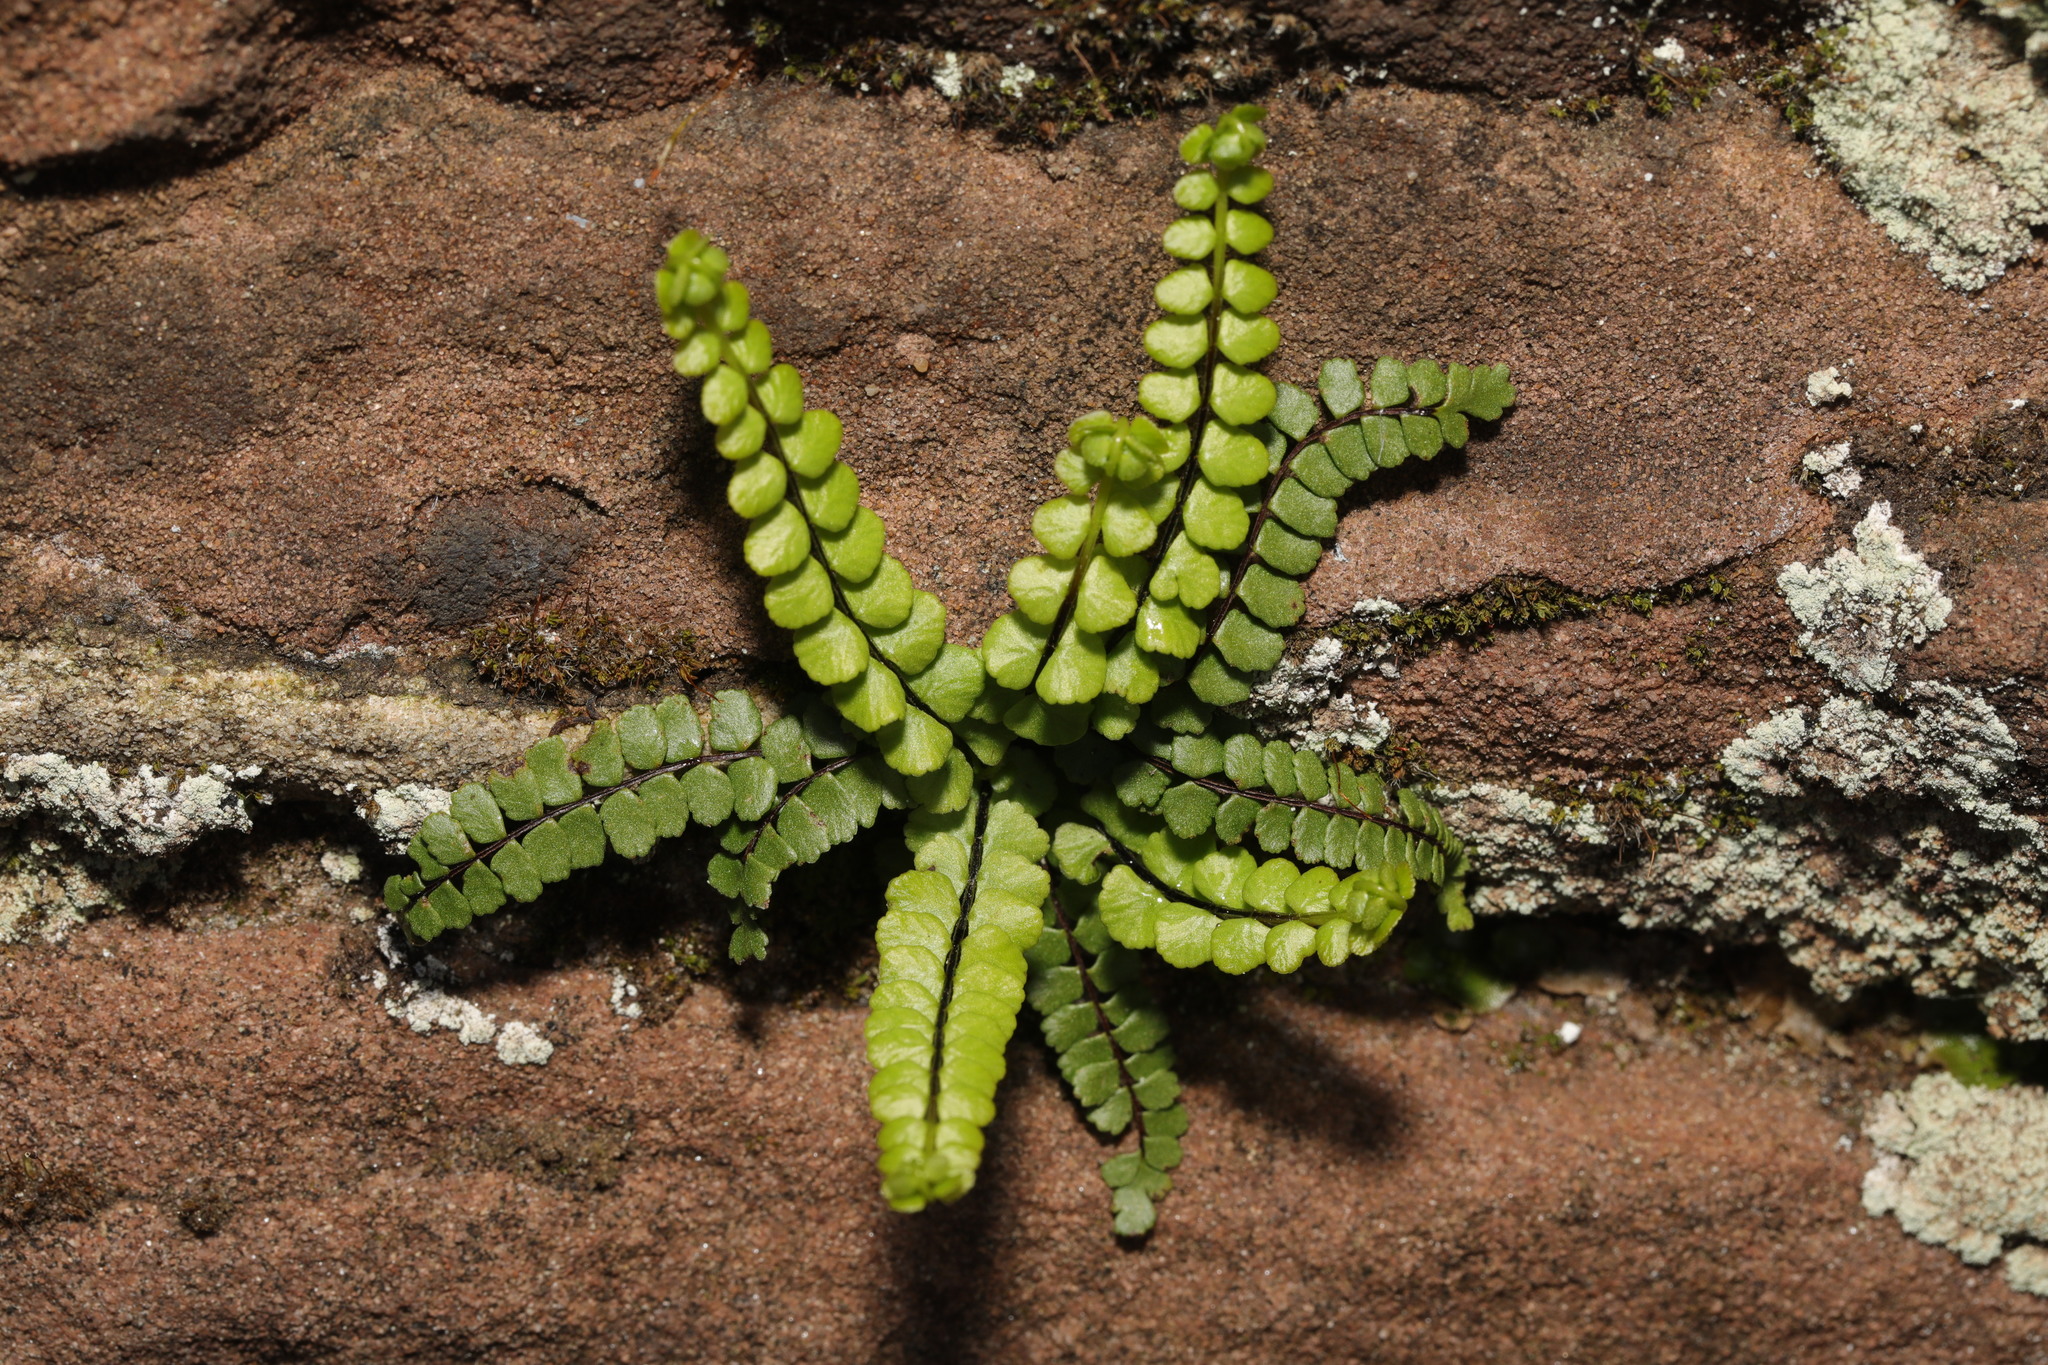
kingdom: Plantae
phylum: Tracheophyta
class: Polypodiopsida
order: Polypodiales
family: Aspleniaceae
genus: Asplenium
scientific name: Asplenium trichomanes
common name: Maidenhair spleenwort
